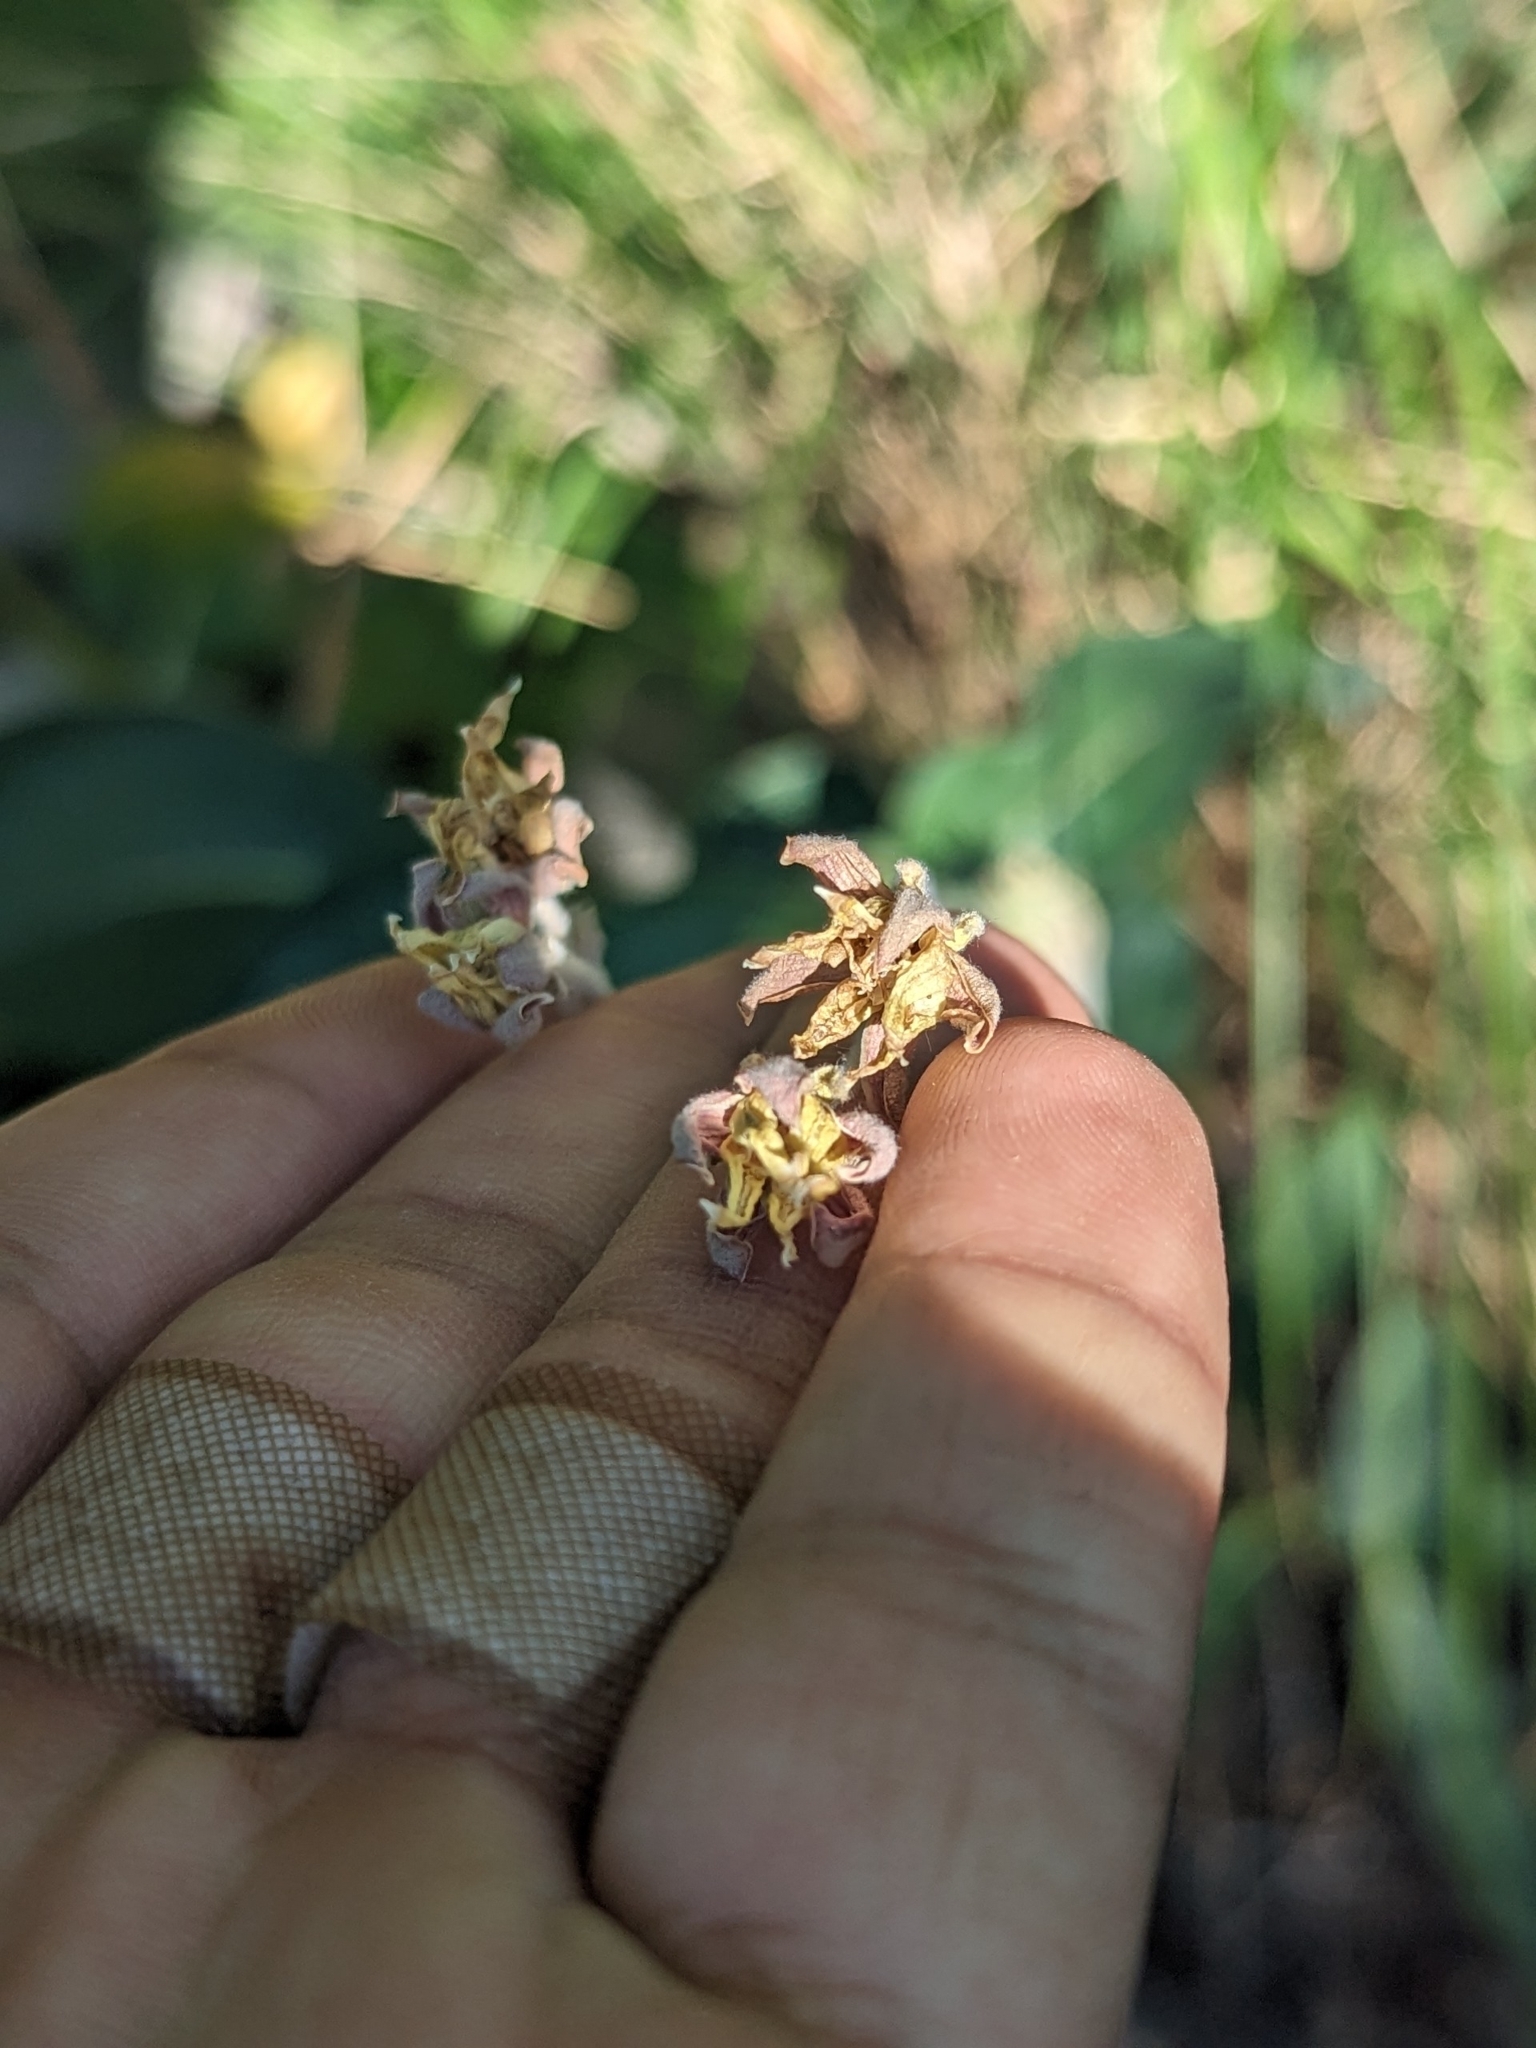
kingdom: Plantae
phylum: Tracheophyta
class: Magnoliopsida
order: Gentianales
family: Apocynaceae
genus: Asclepias
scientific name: Asclepias speciosa
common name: Showy milkweed
